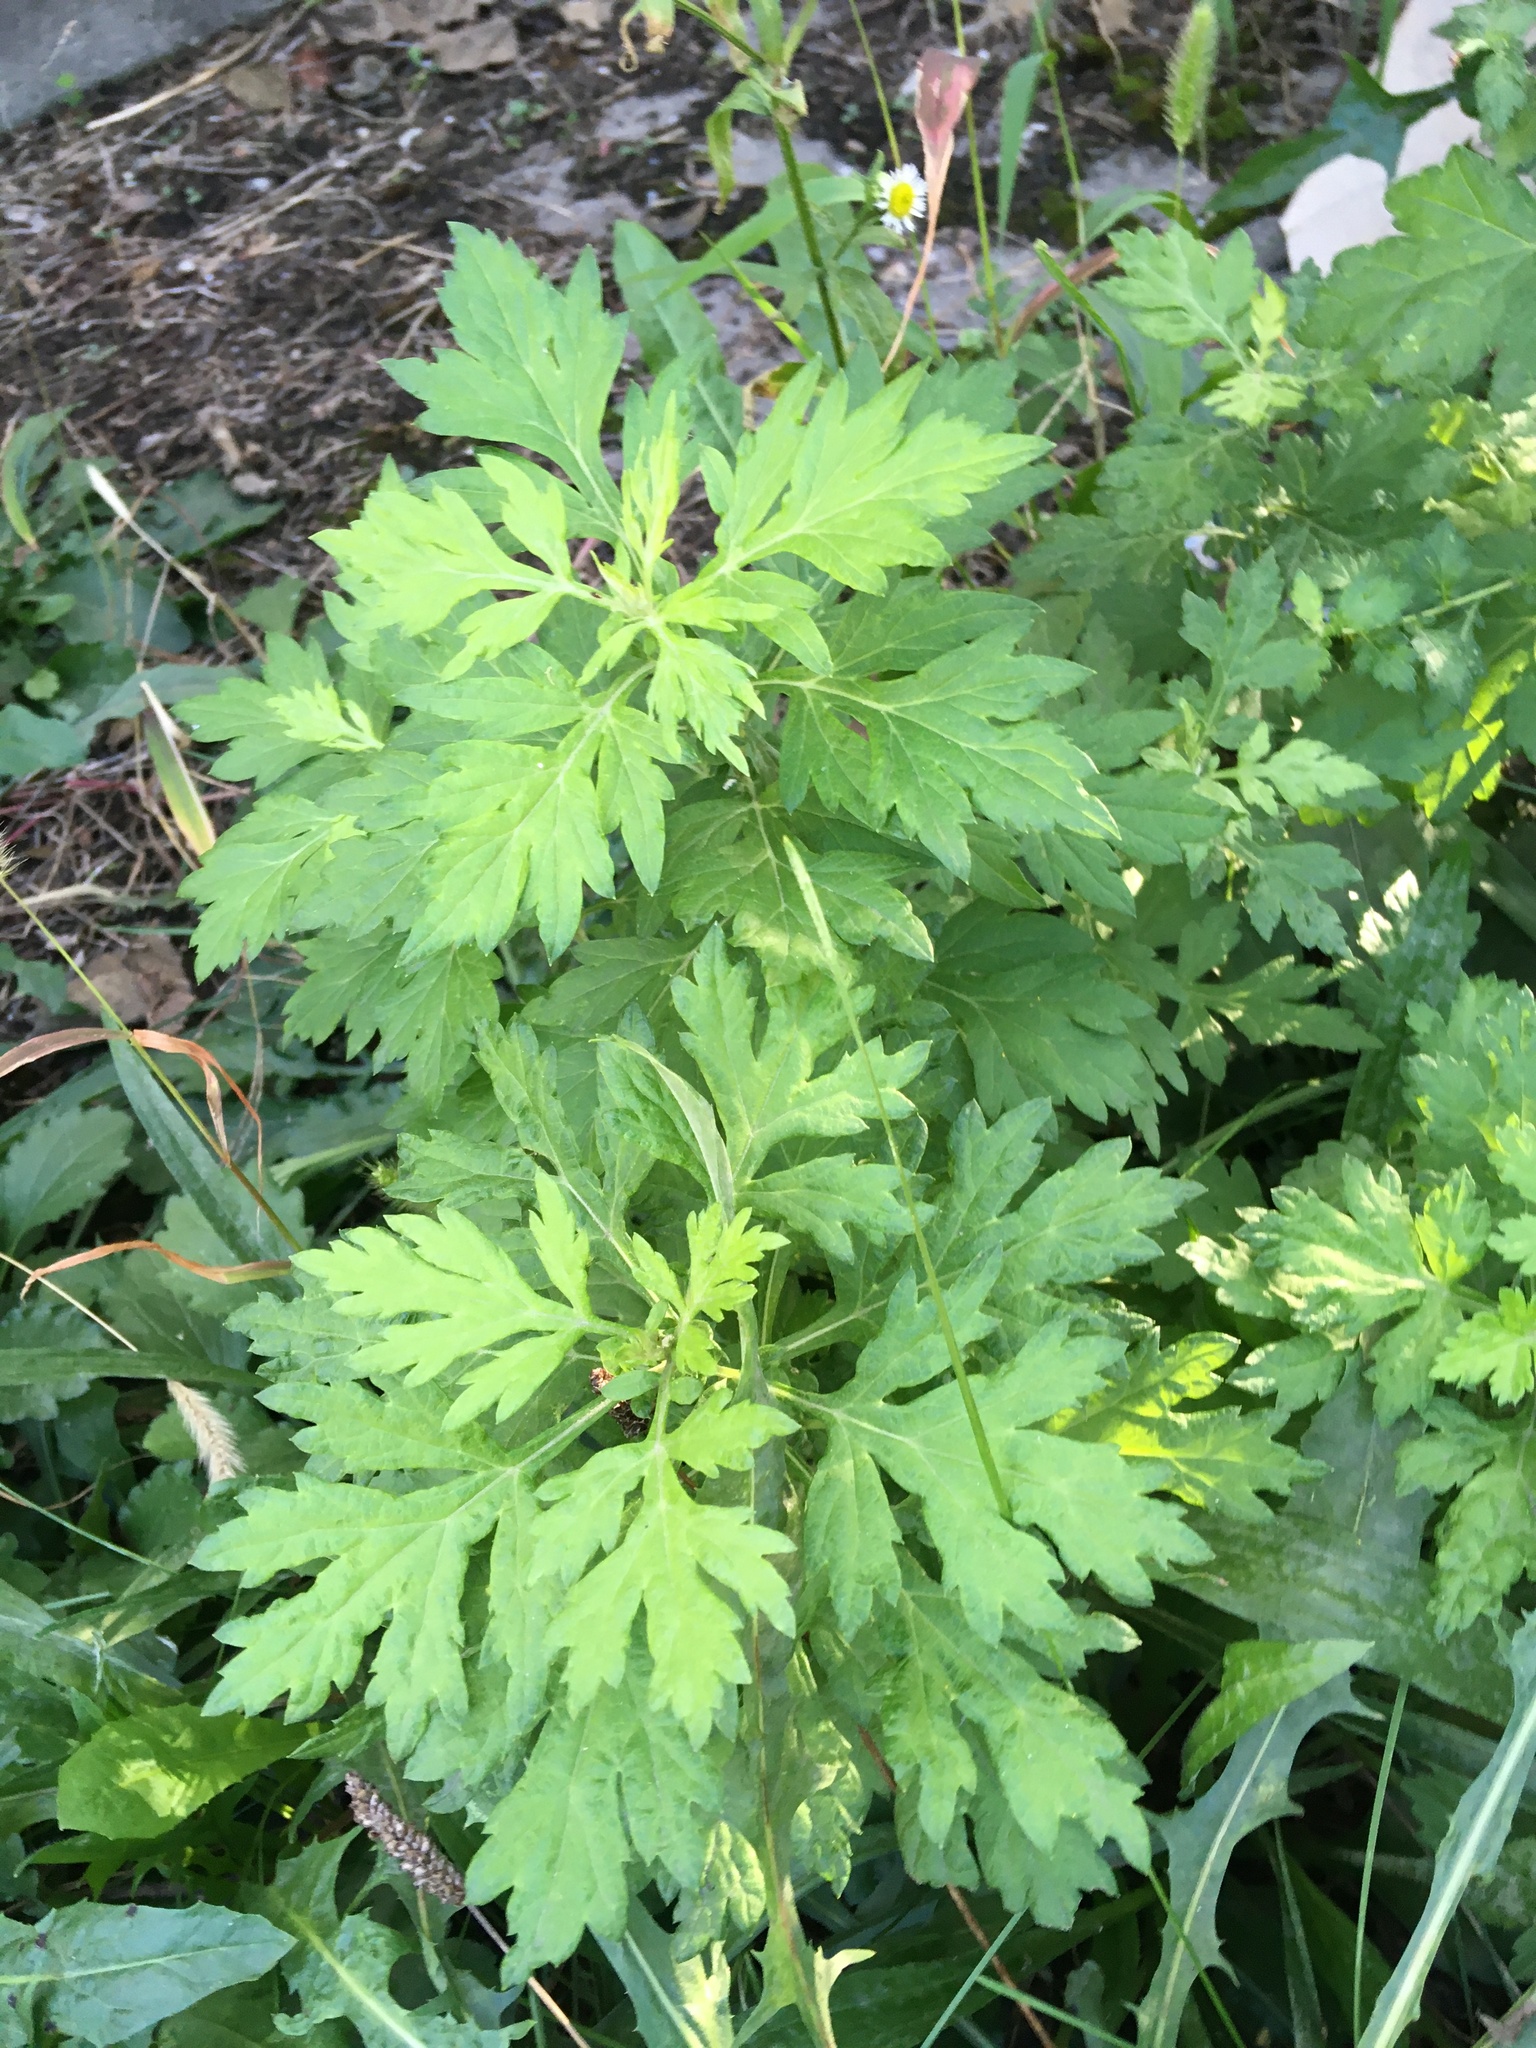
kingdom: Plantae
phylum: Tracheophyta
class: Magnoliopsida
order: Asterales
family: Asteraceae
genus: Artemisia
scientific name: Artemisia vulgaris
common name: Mugwort
